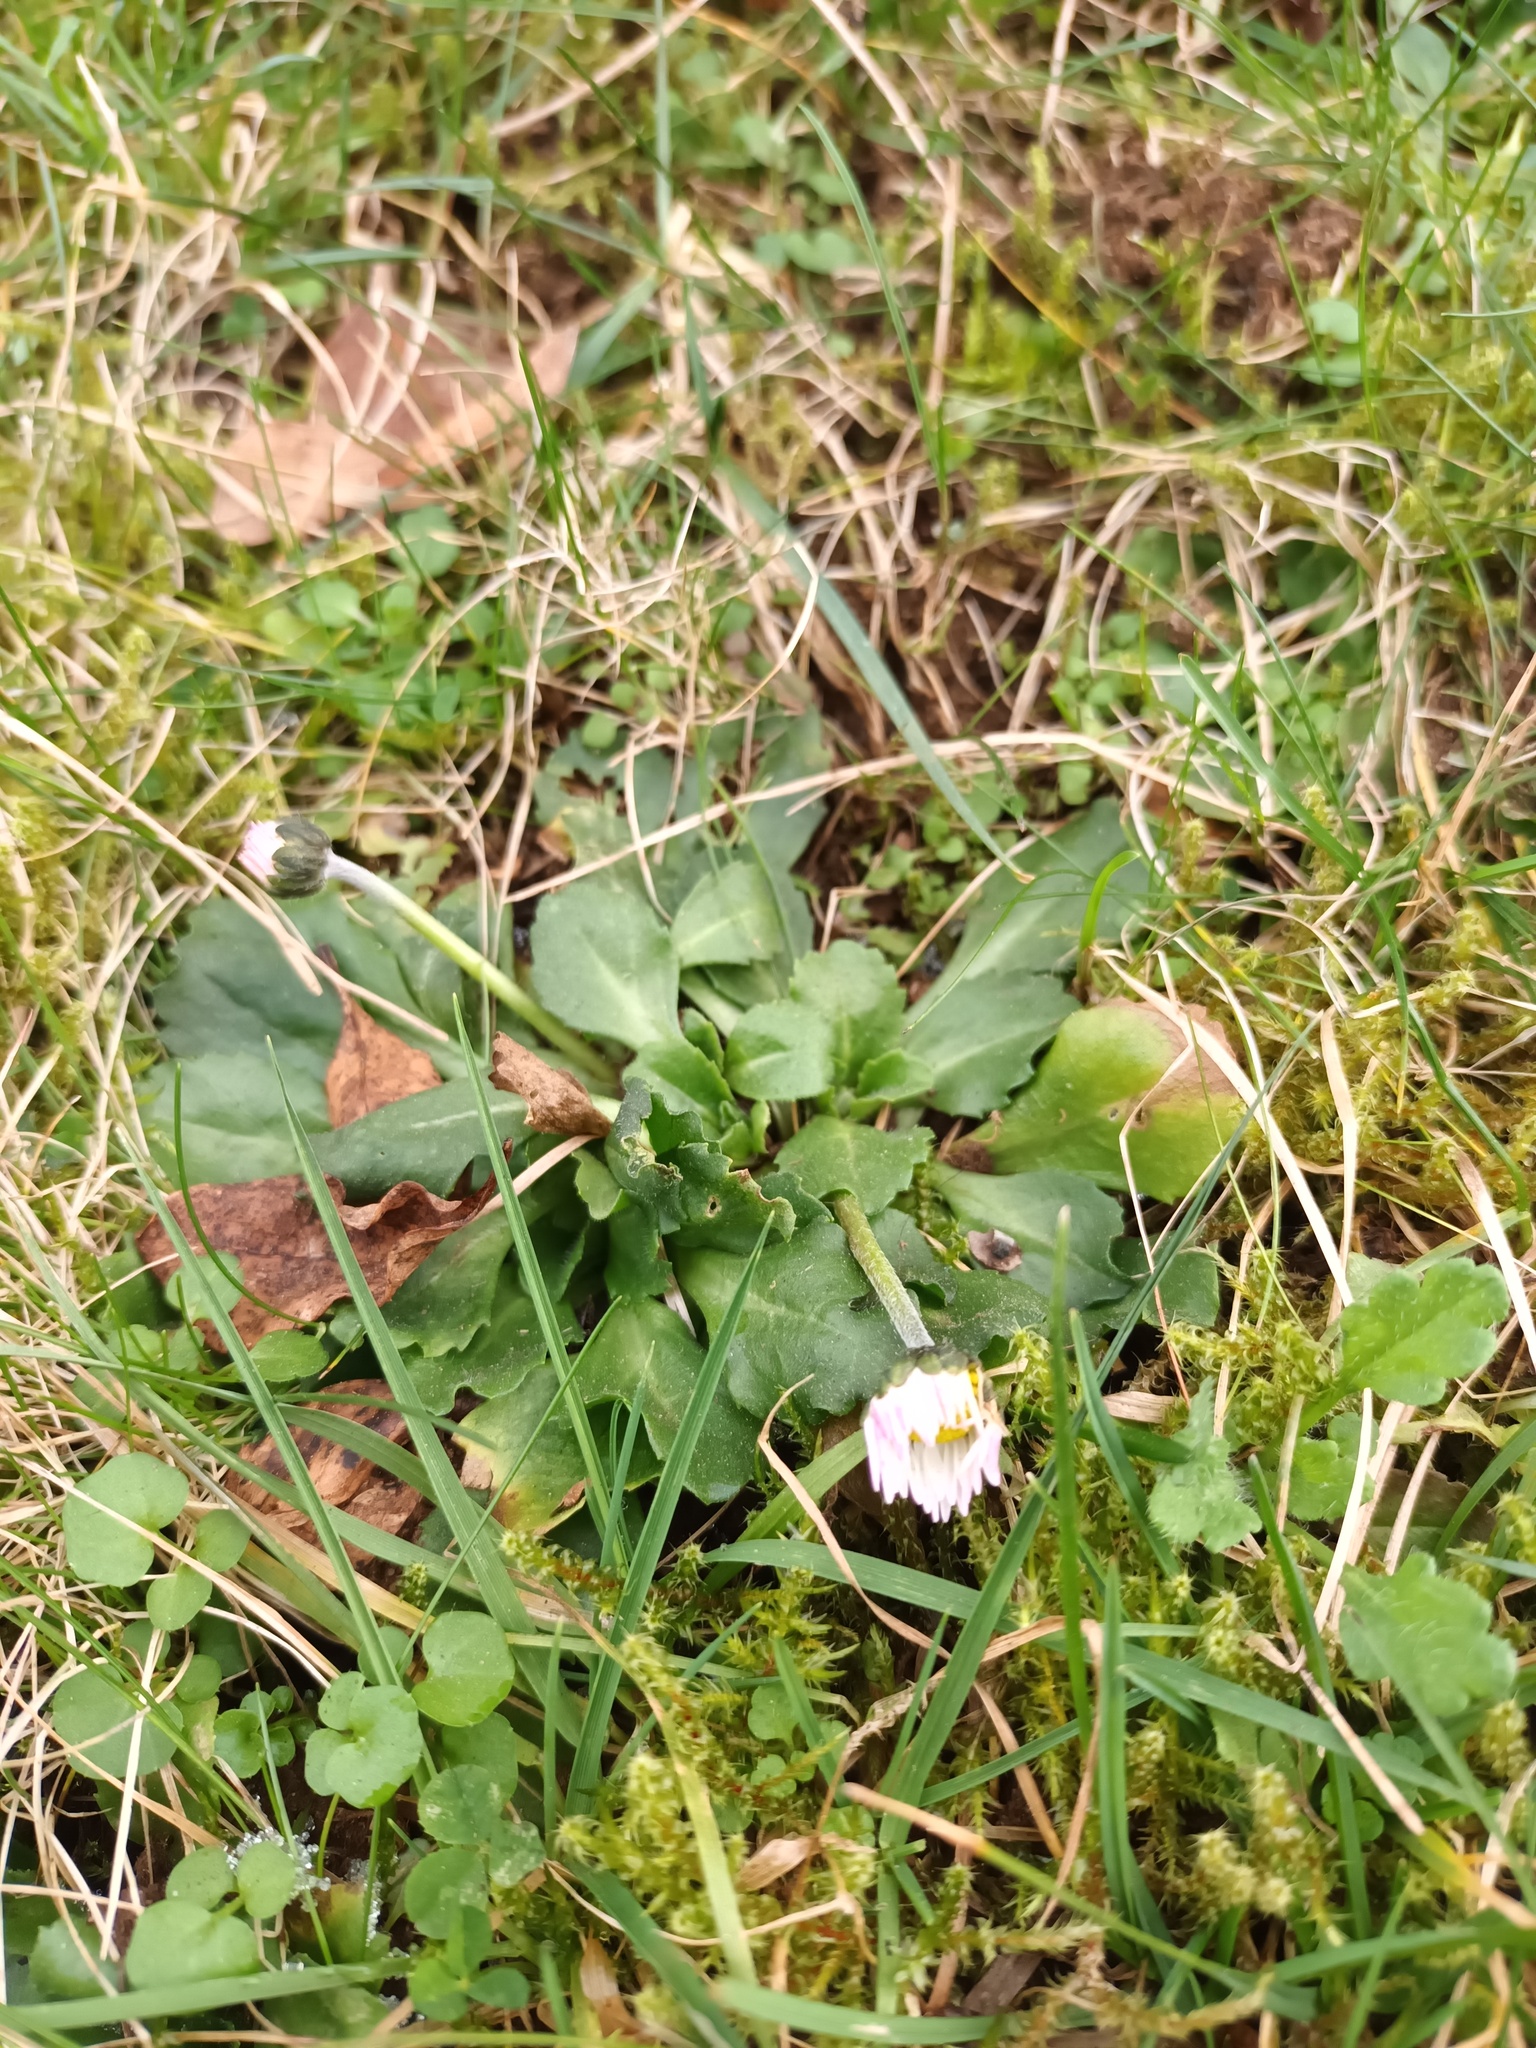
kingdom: Plantae
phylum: Tracheophyta
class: Magnoliopsida
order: Asterales
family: Asteraceae
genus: Bellis
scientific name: Bellis perennis
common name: Lawndaisy
